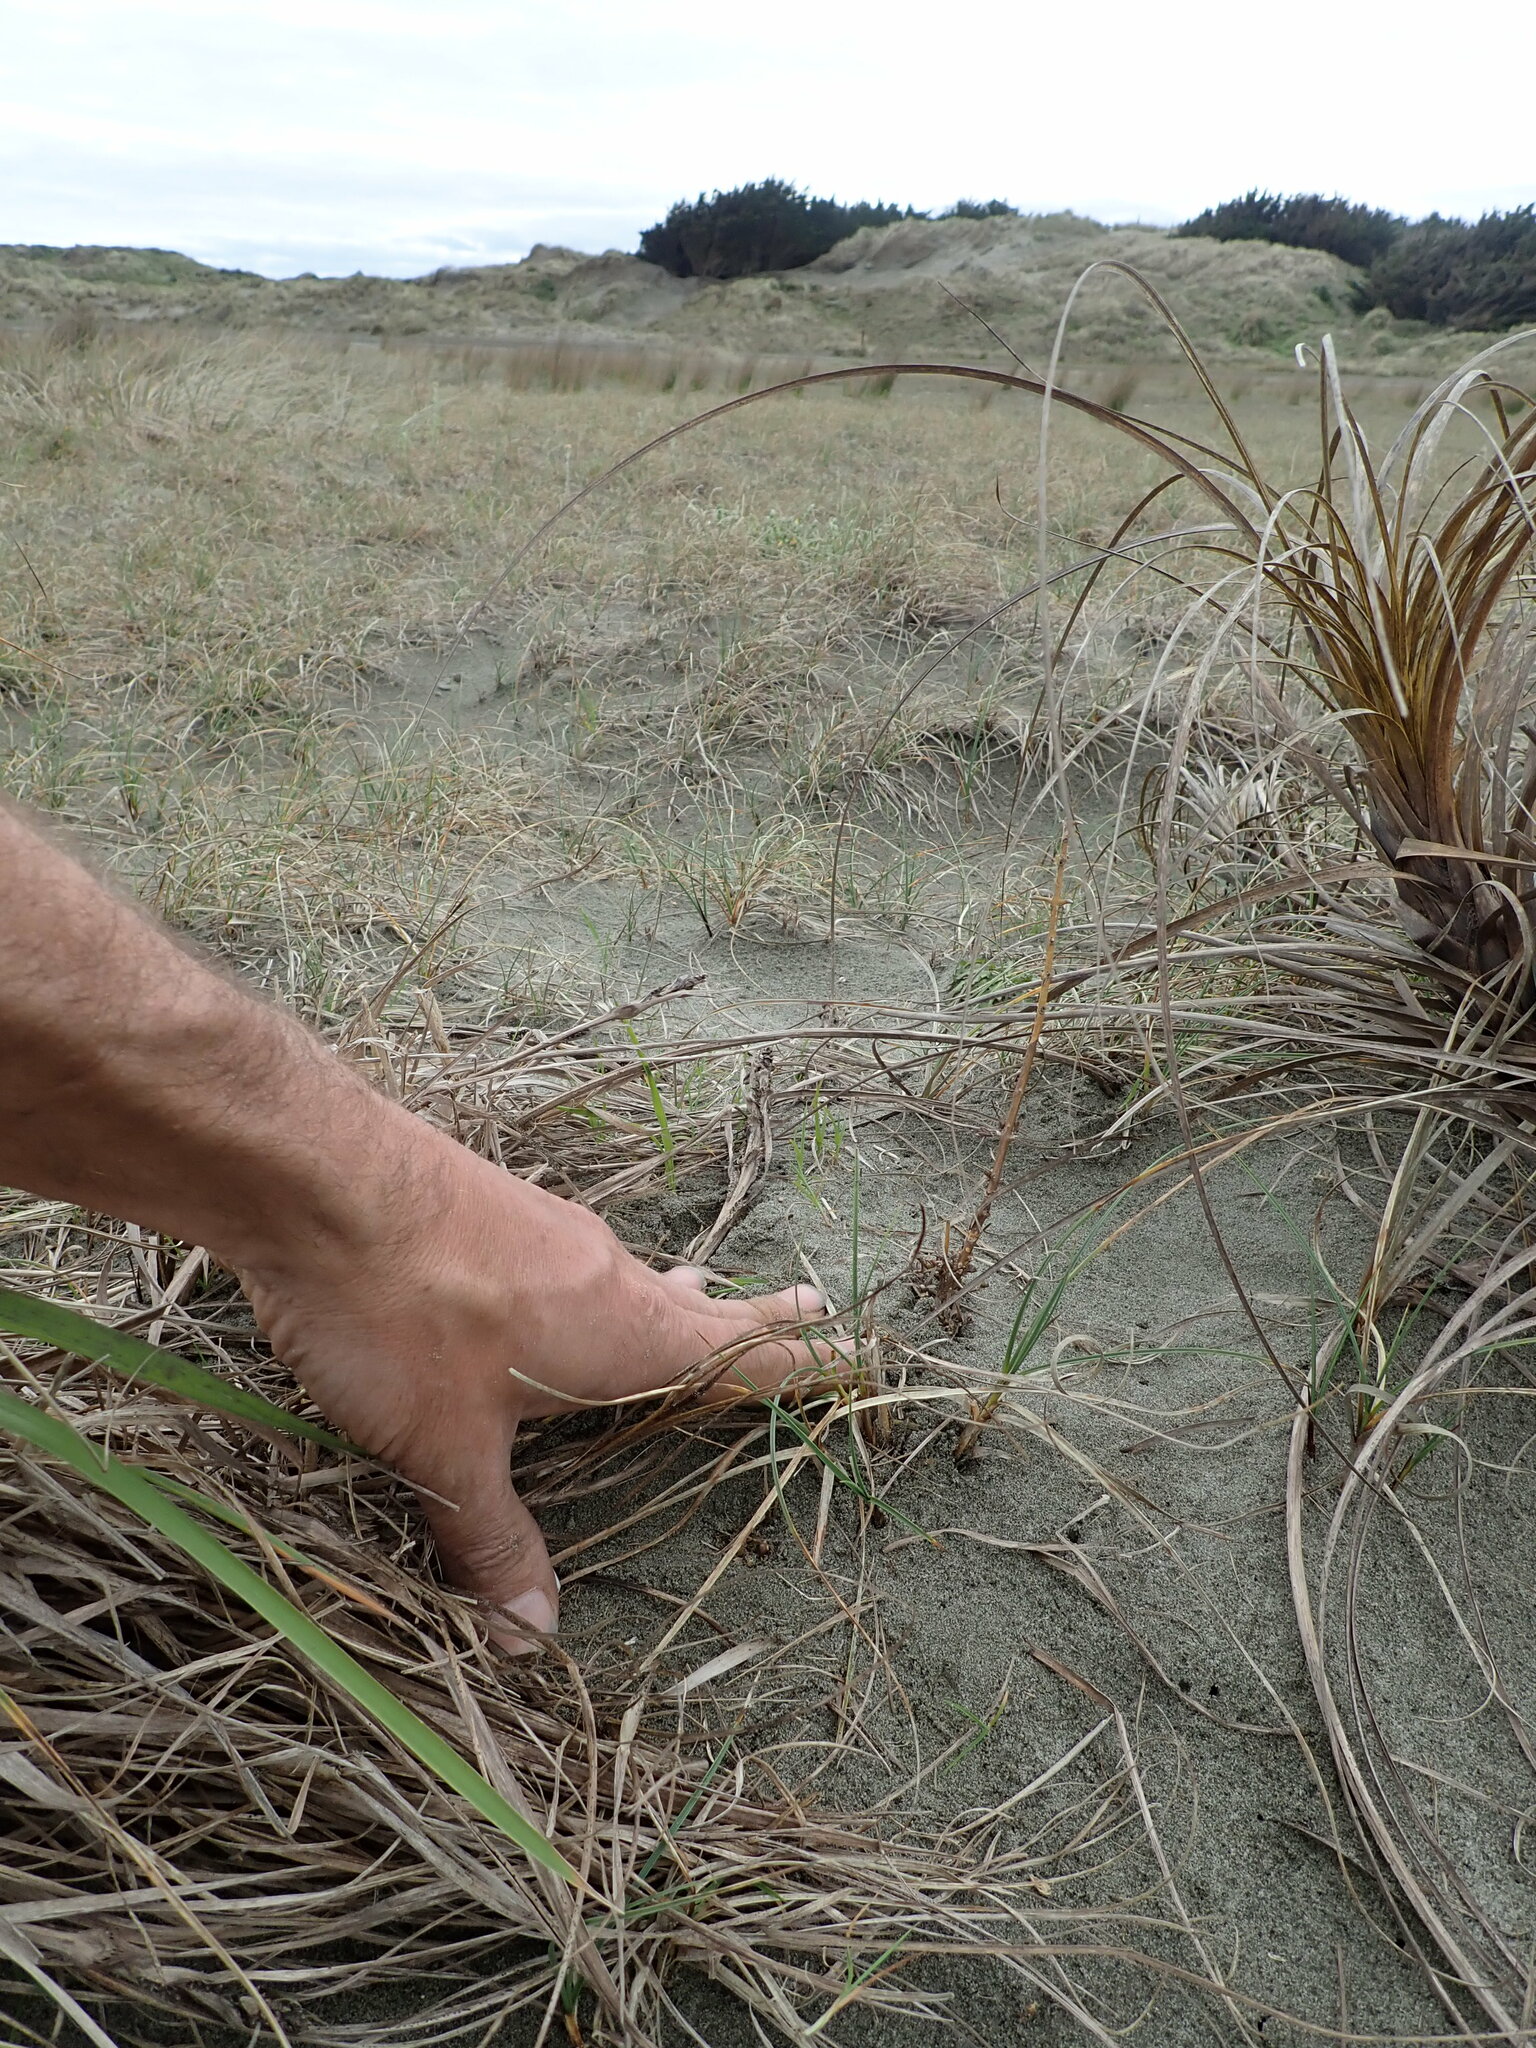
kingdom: Plantae
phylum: Tracheophyta
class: Magnoliopsida
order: Gentianales
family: Rubiaceae
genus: Coprosma
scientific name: Coprosma acerosa
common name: Sand coprosma
